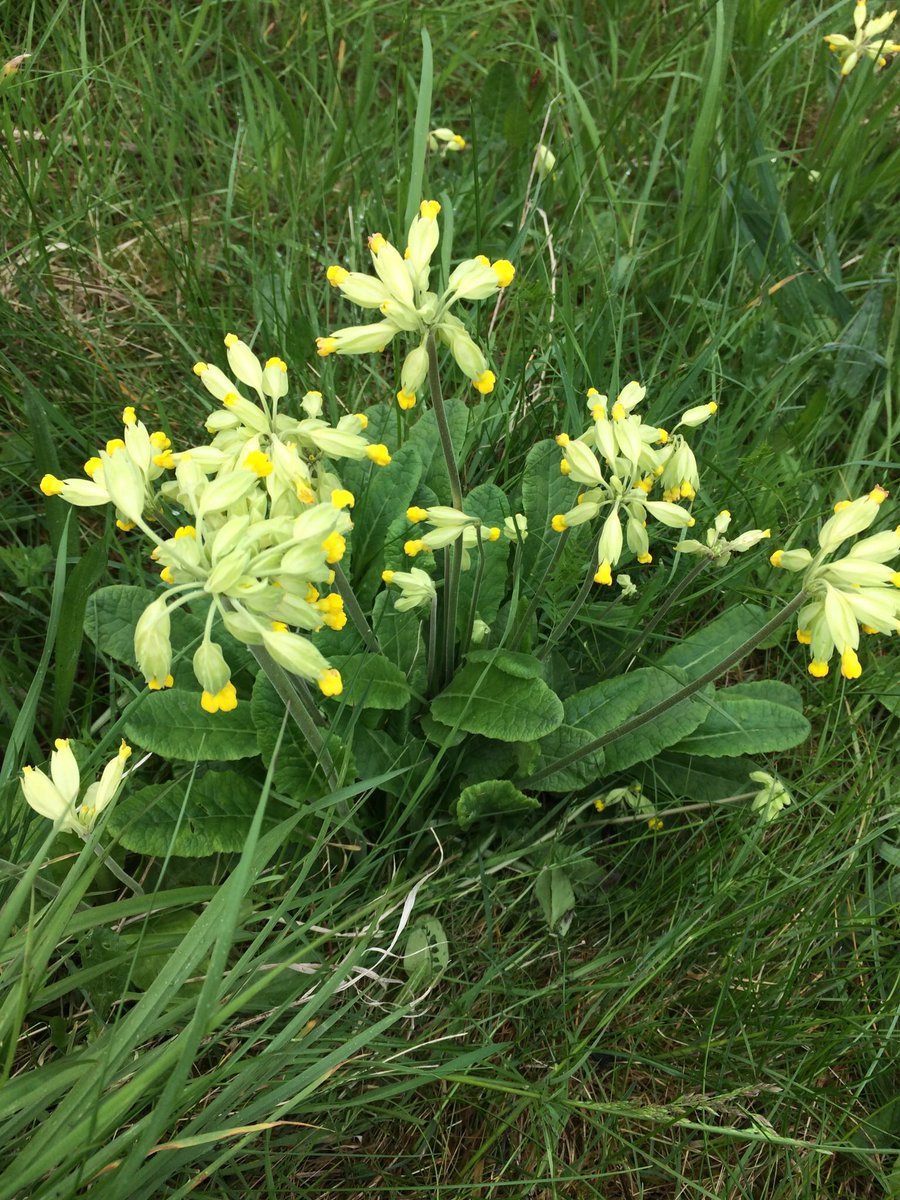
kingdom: Plantae
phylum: Tracheophyta
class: Magnoliopsida
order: Ericales
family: Primulaceae
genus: Primula
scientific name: Primula veris
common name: Cowslip
